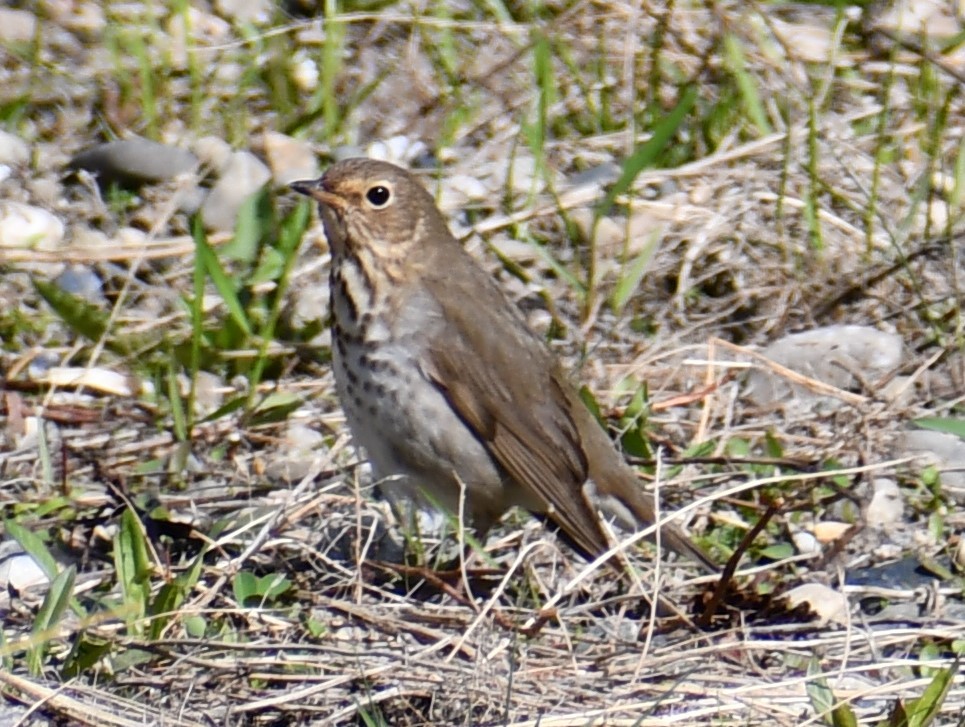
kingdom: Animalia
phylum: Chordata
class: Aves
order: Passeriformes
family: Turdidae
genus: Catharus
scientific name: Catharus ustulatus
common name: Swainson's thrush
